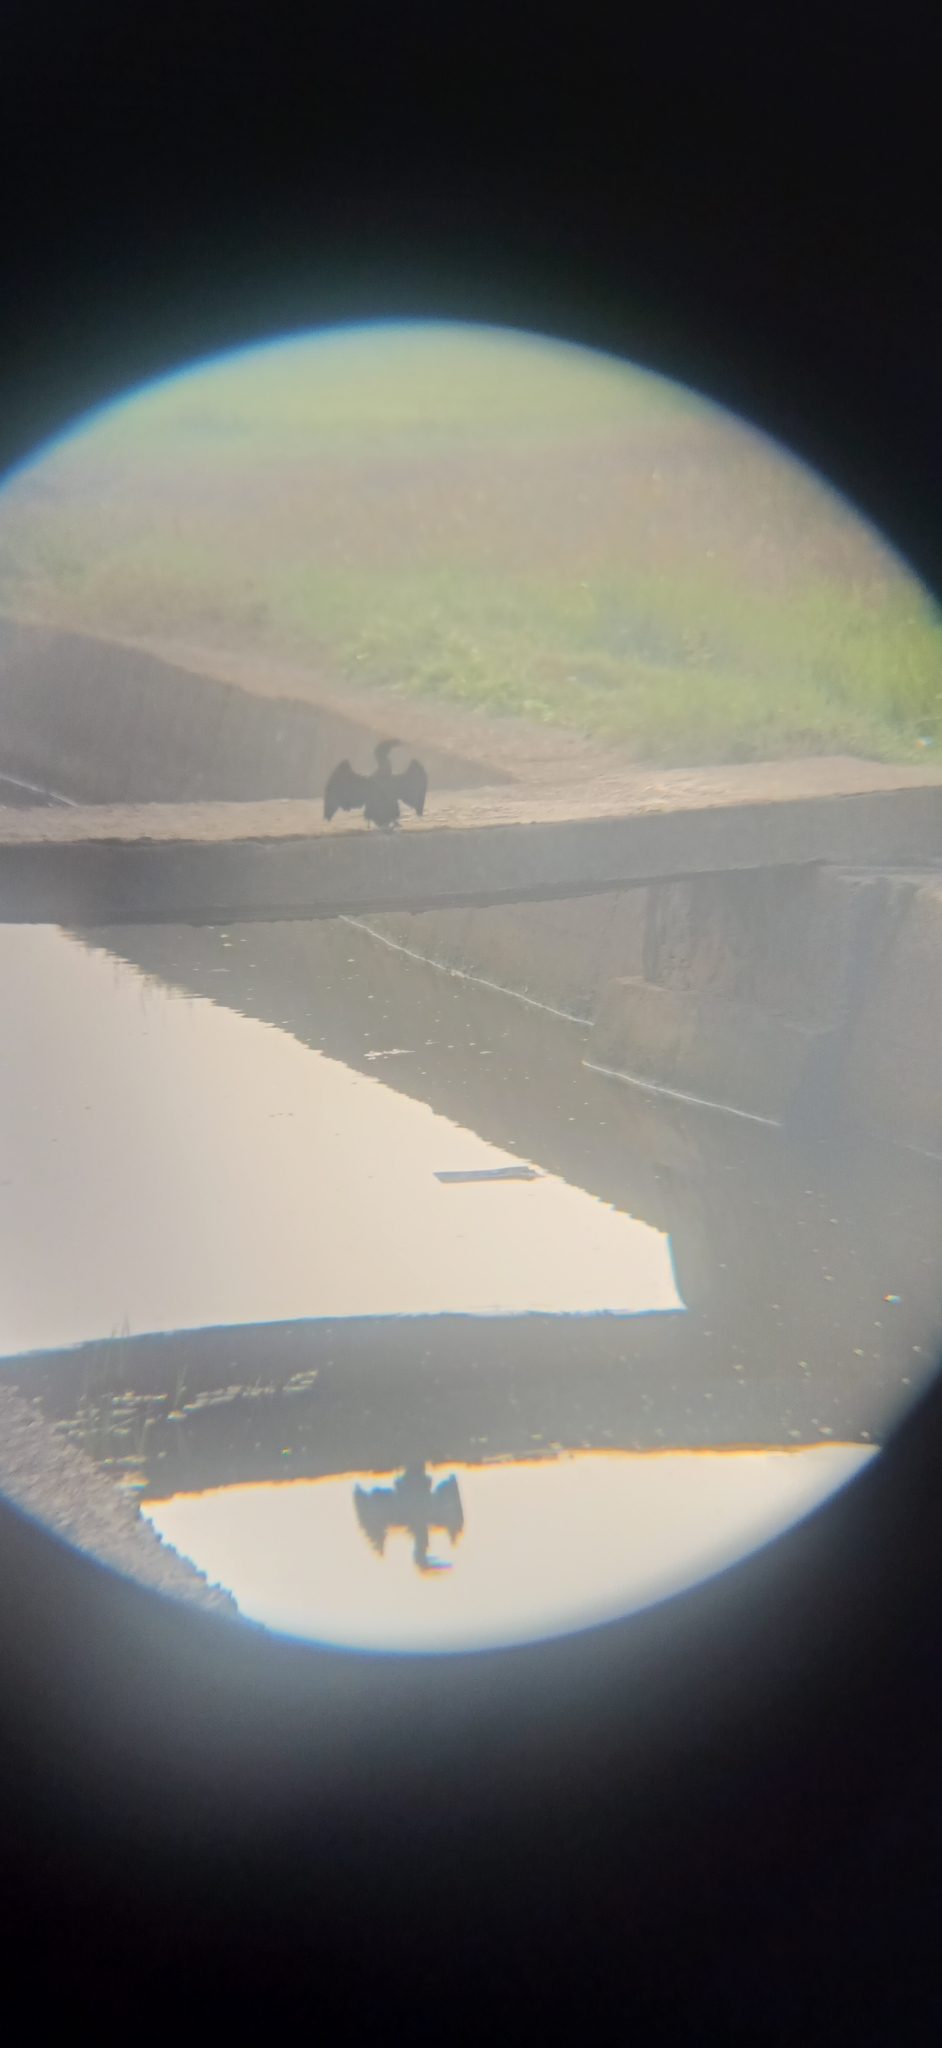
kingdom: Animalia
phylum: Chordata
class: Aves
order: Suliformes
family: Phalacrocoracidae
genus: Microcarbo
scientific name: Microcarbo niger
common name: Little cormorant
